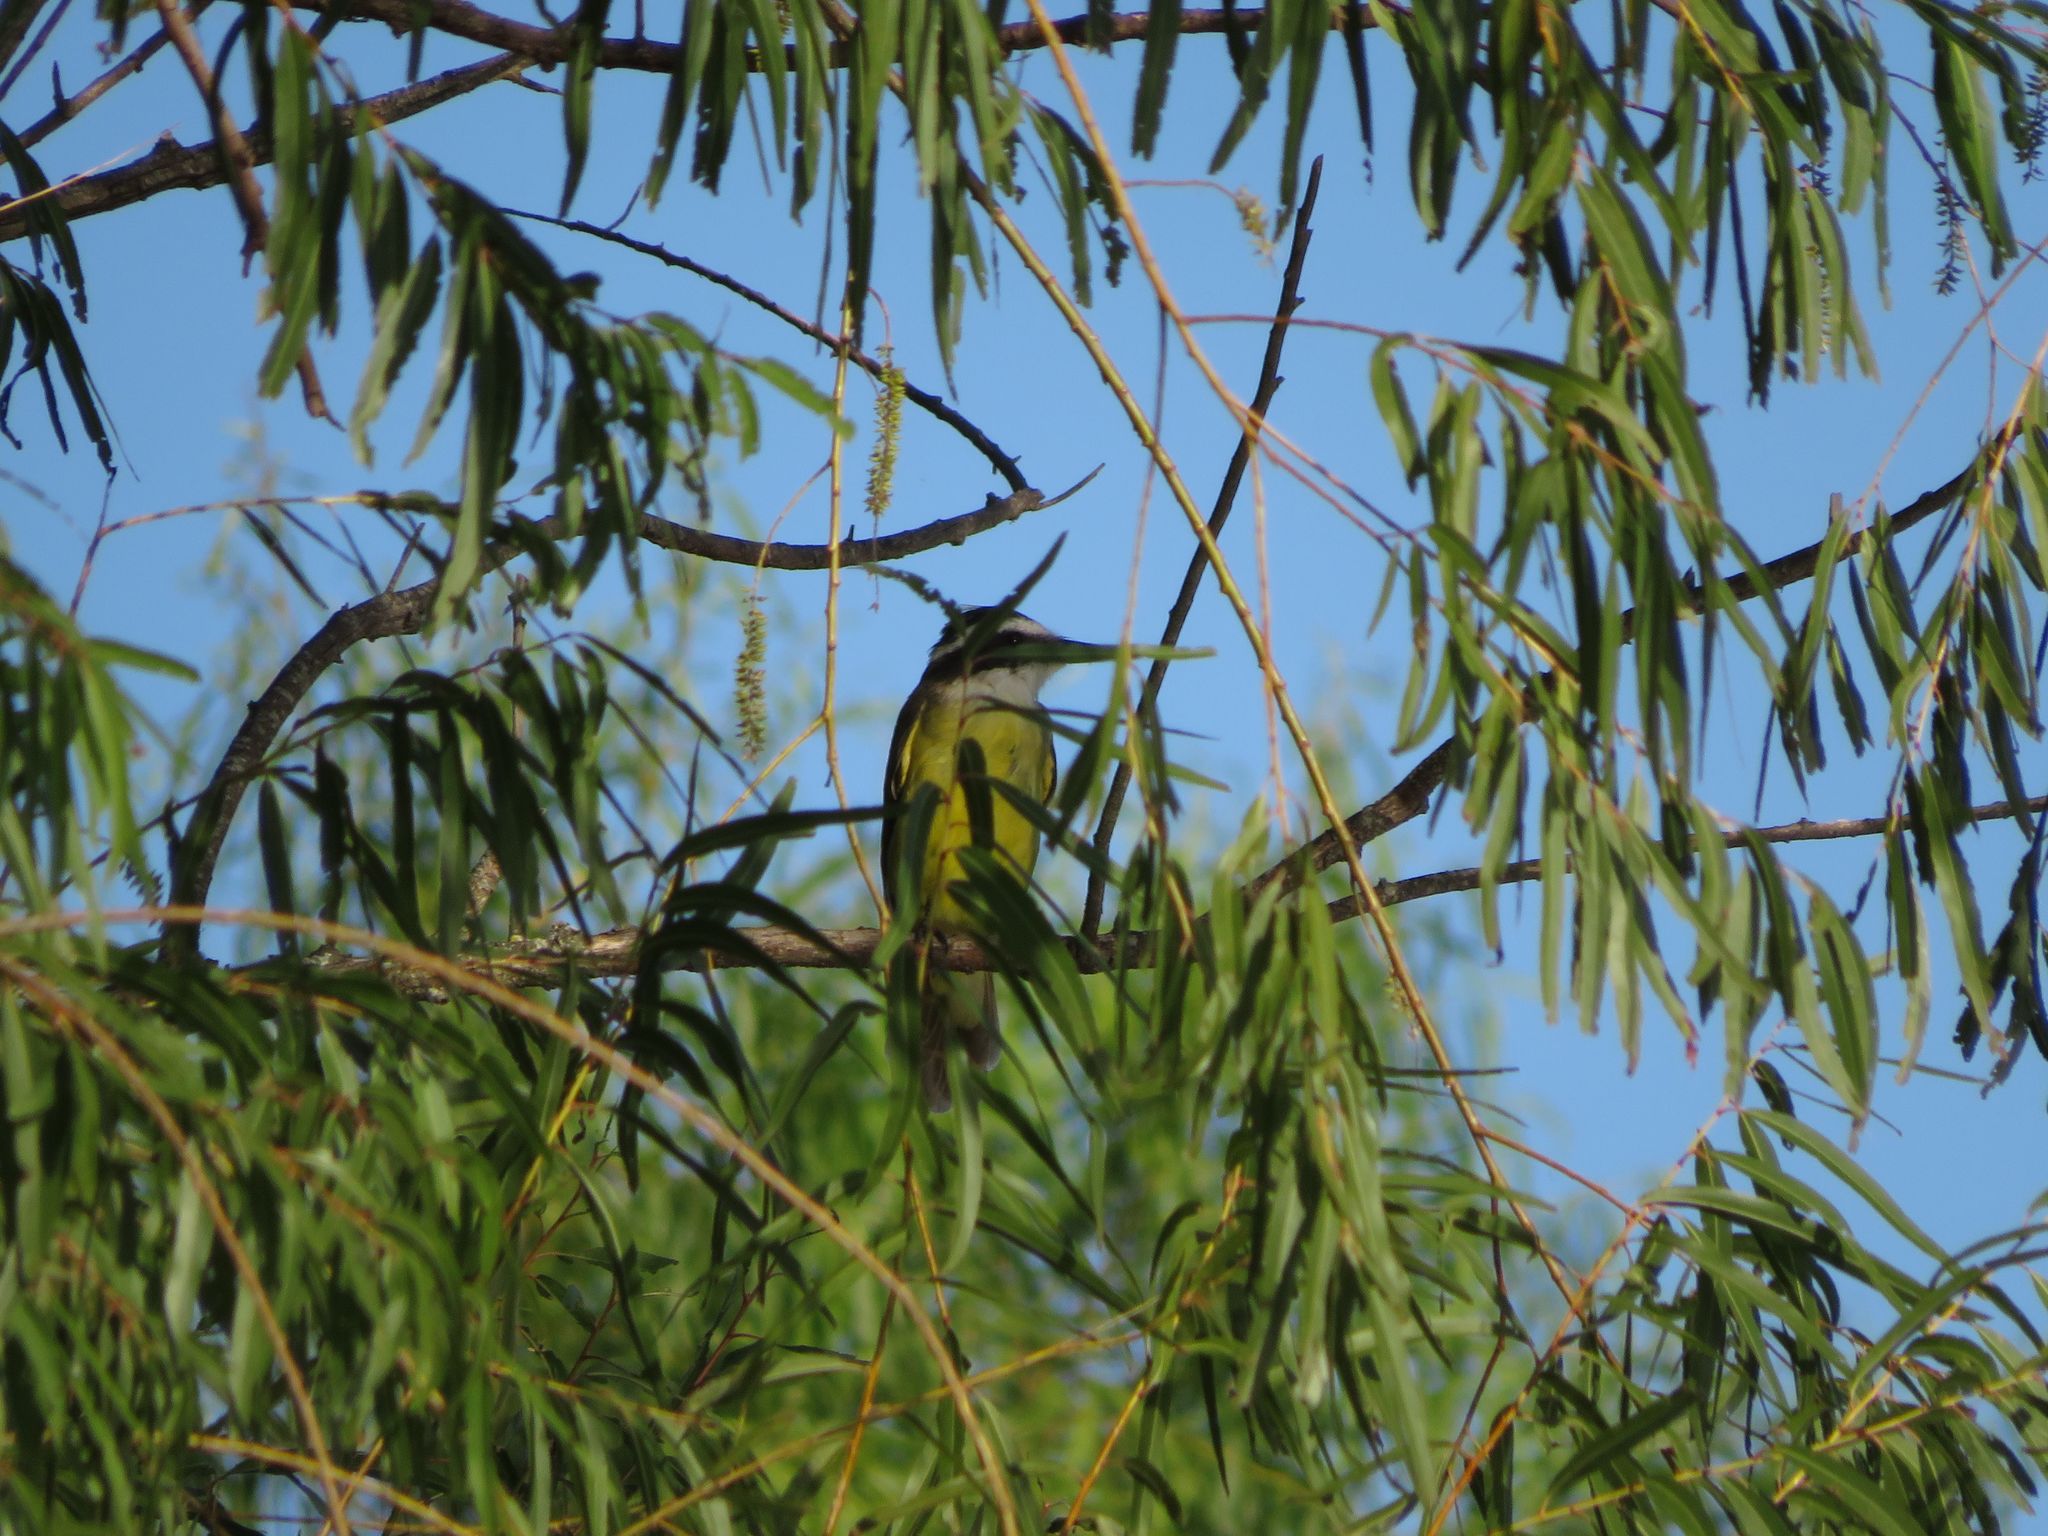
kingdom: Animalia
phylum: Chordata
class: Aves
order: Passeriformes
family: Tyrannidae
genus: Pitangus
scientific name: Pitangus sulphuratus
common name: Great kiskadee
